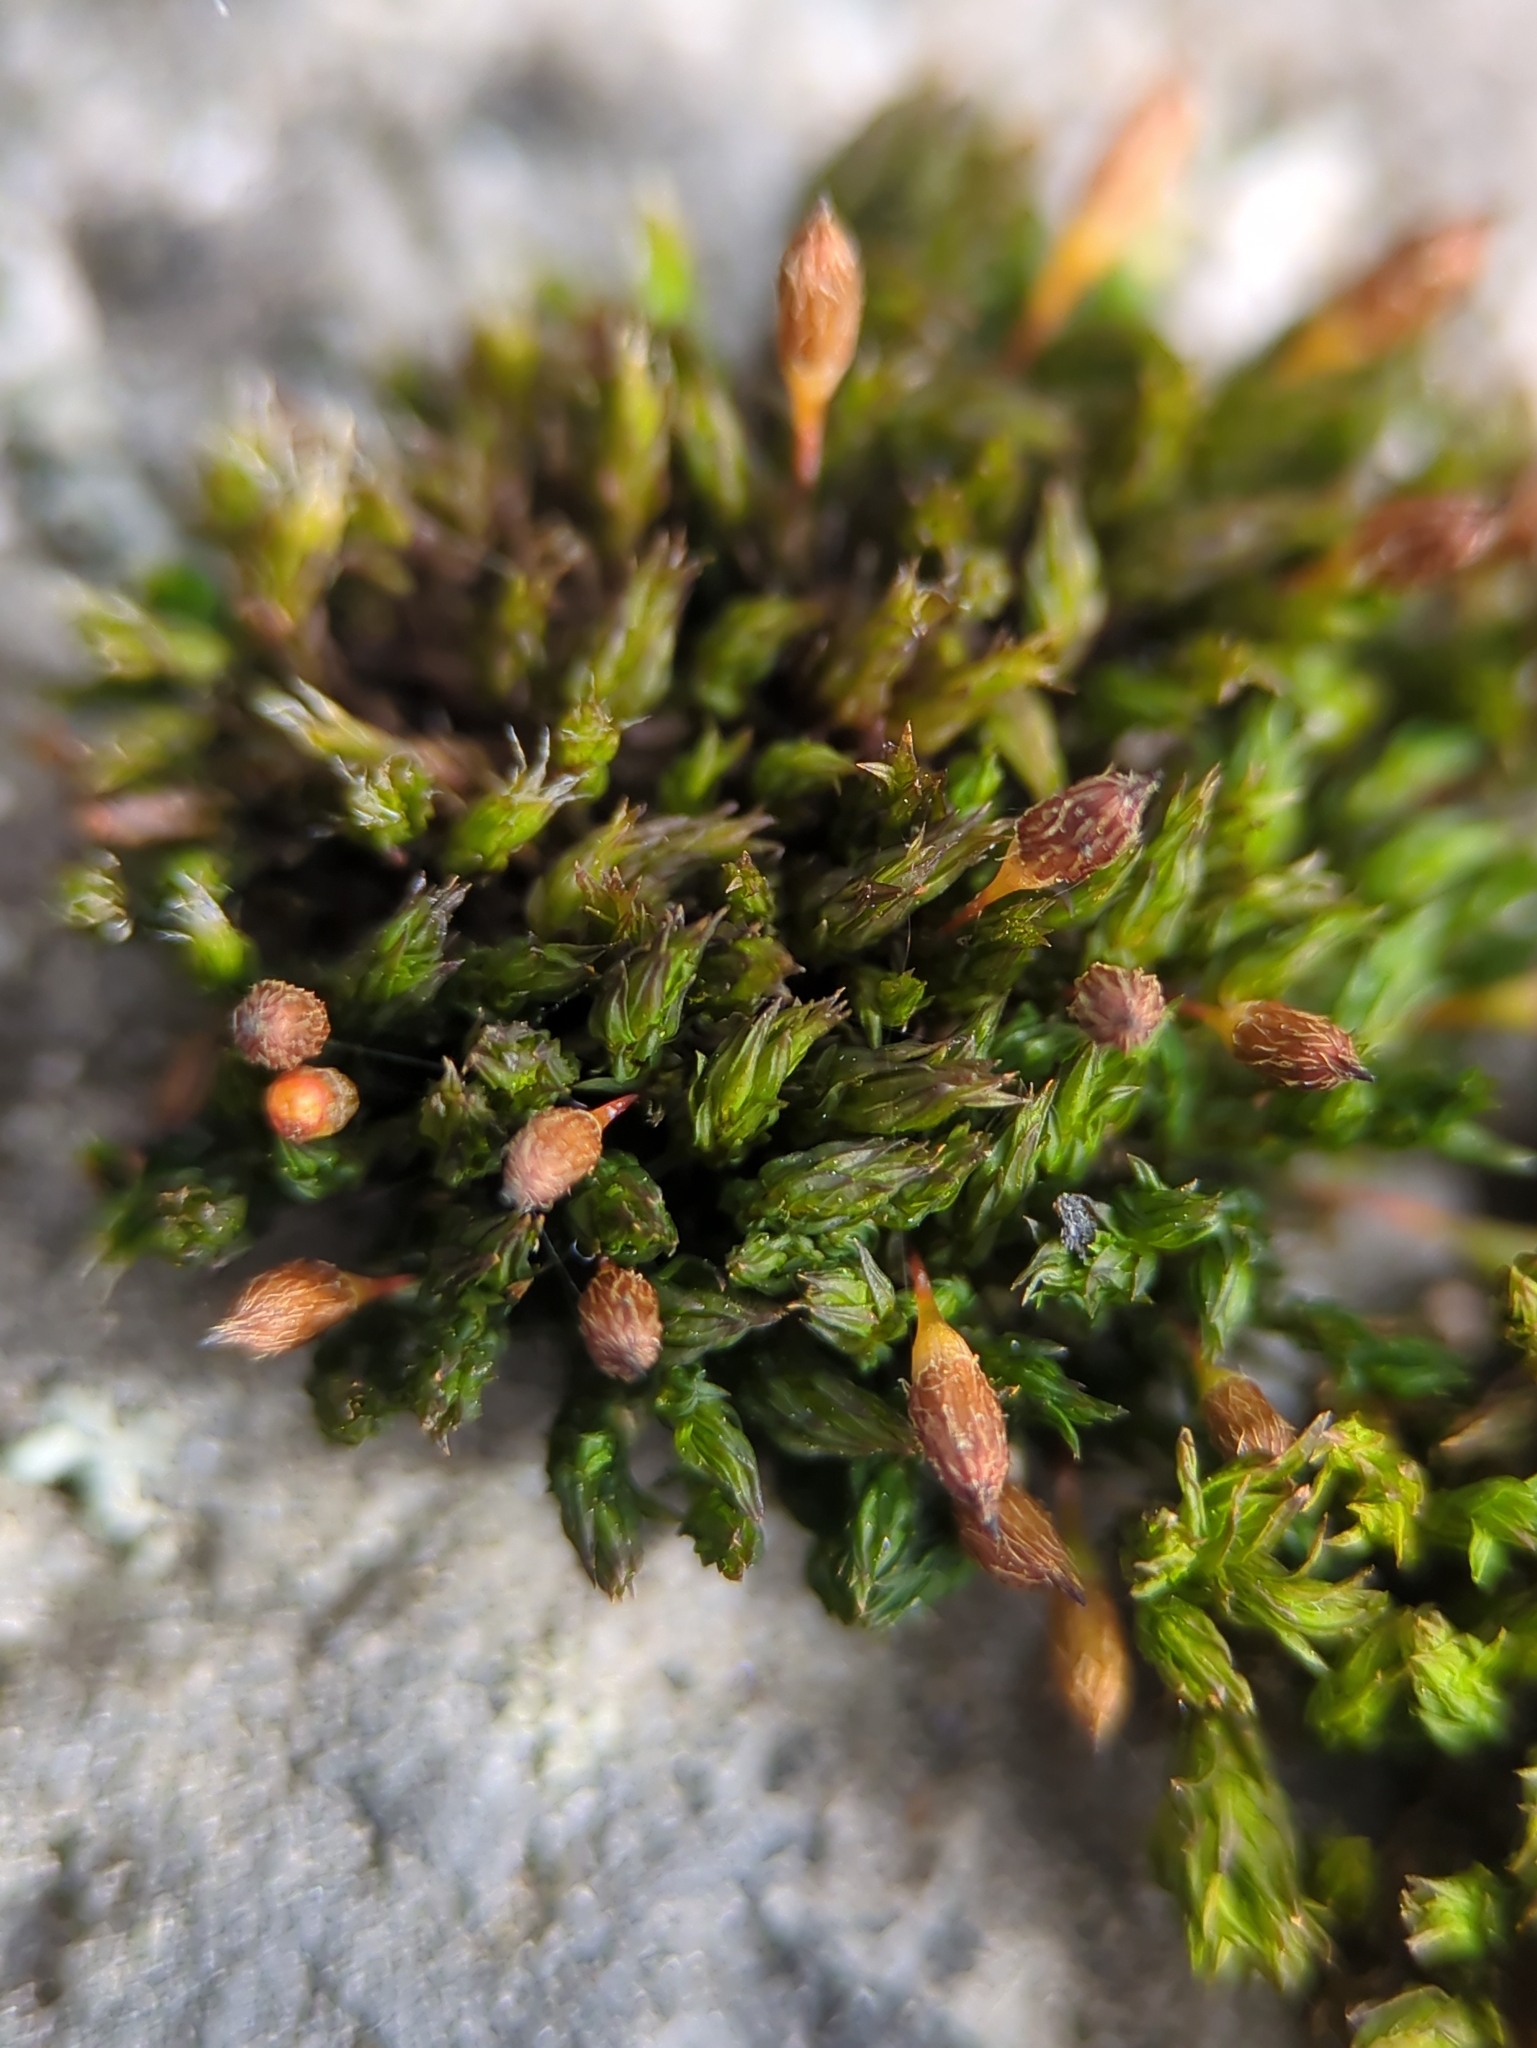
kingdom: Plantae
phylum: Bryophyta
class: Bryopsida
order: Orthotrichales
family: Orthotrichaceae
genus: Orthotrichum
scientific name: Orthotrichum anomalum
